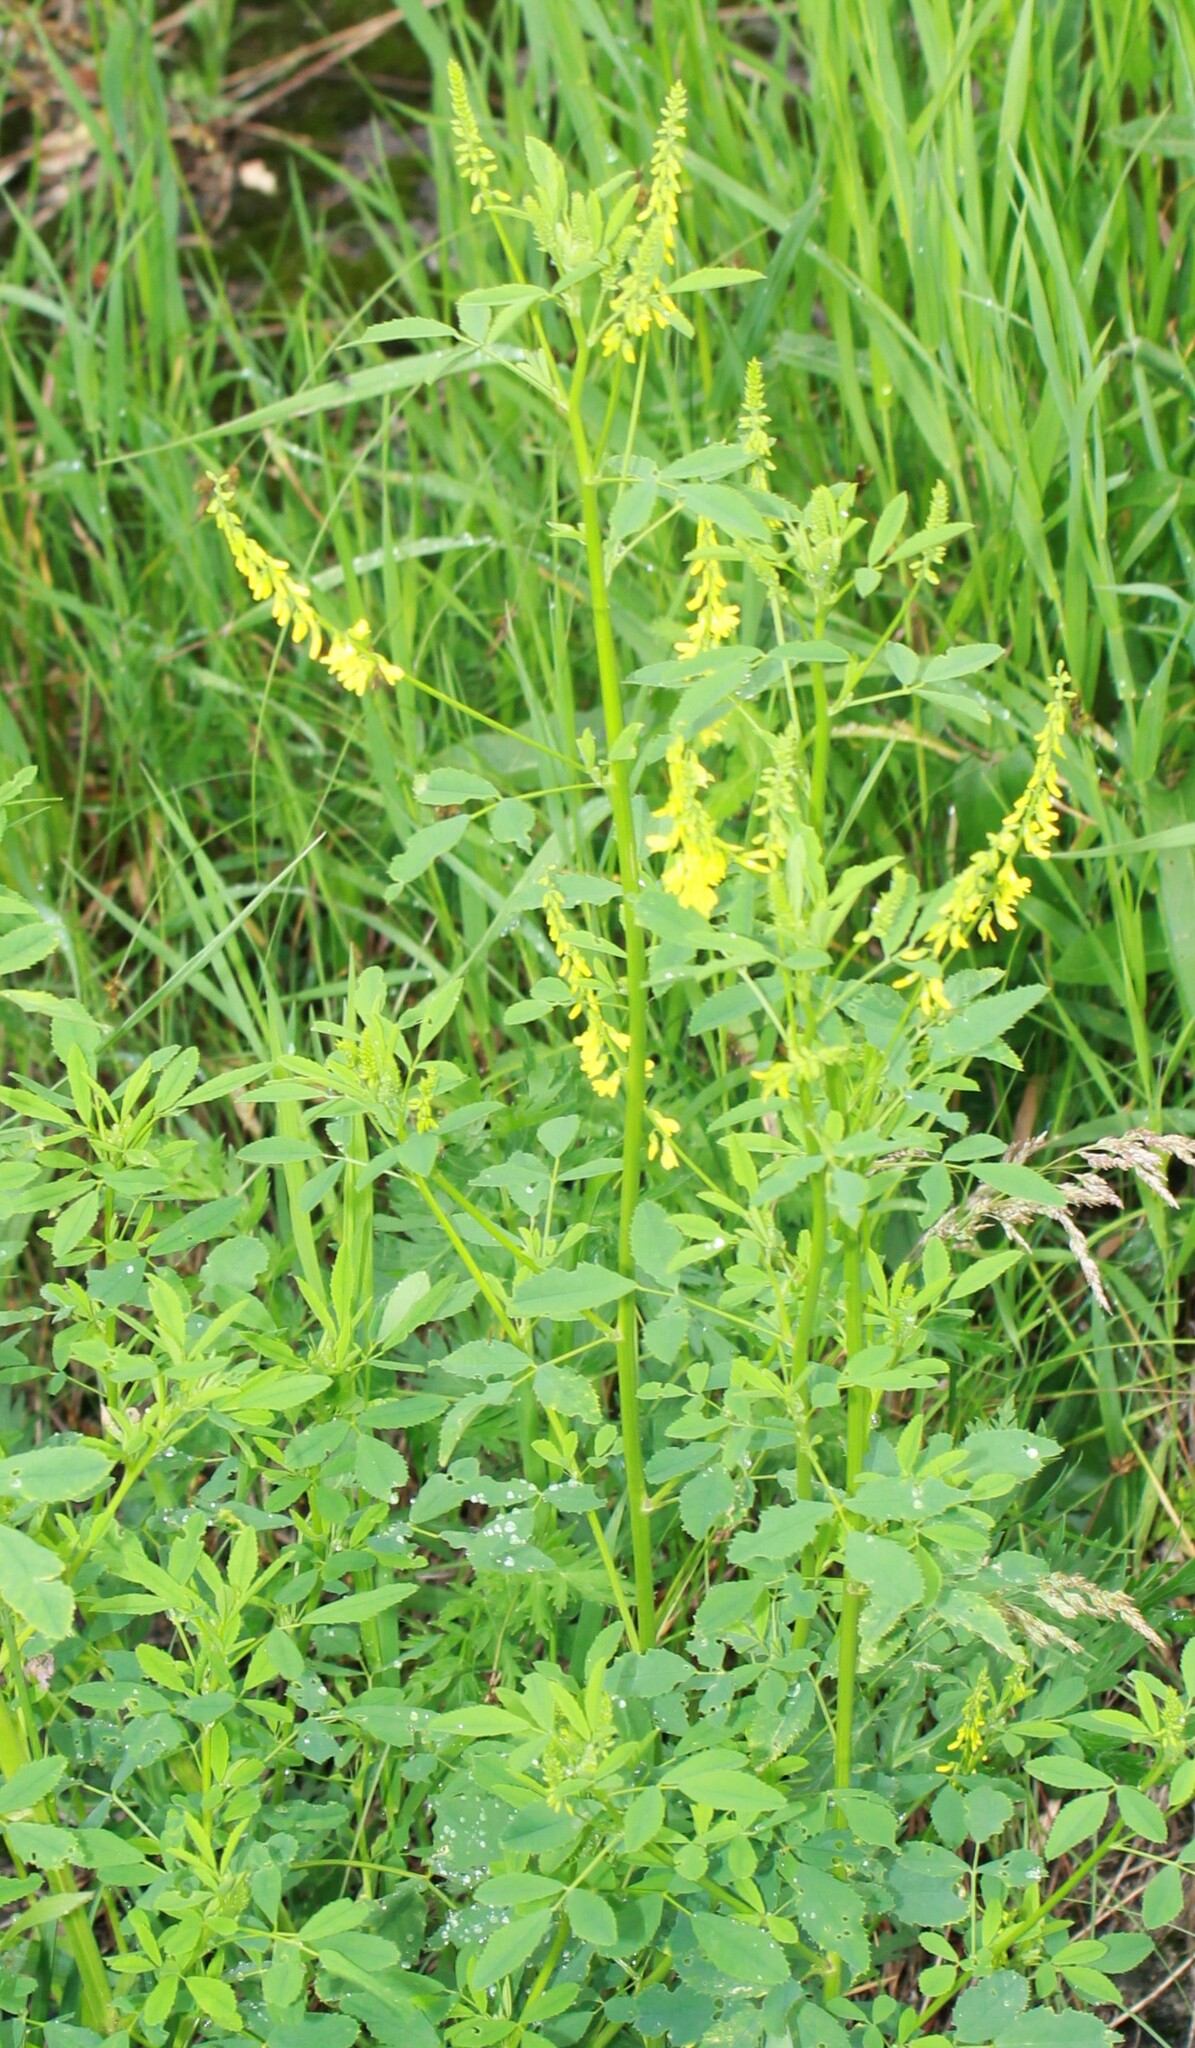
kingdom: Plantae
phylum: Tracheophyta
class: Magnoliopsida
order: Fabales
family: Fabaceae
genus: Melilotus
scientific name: Melilotus officinalis
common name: Sweetclover
